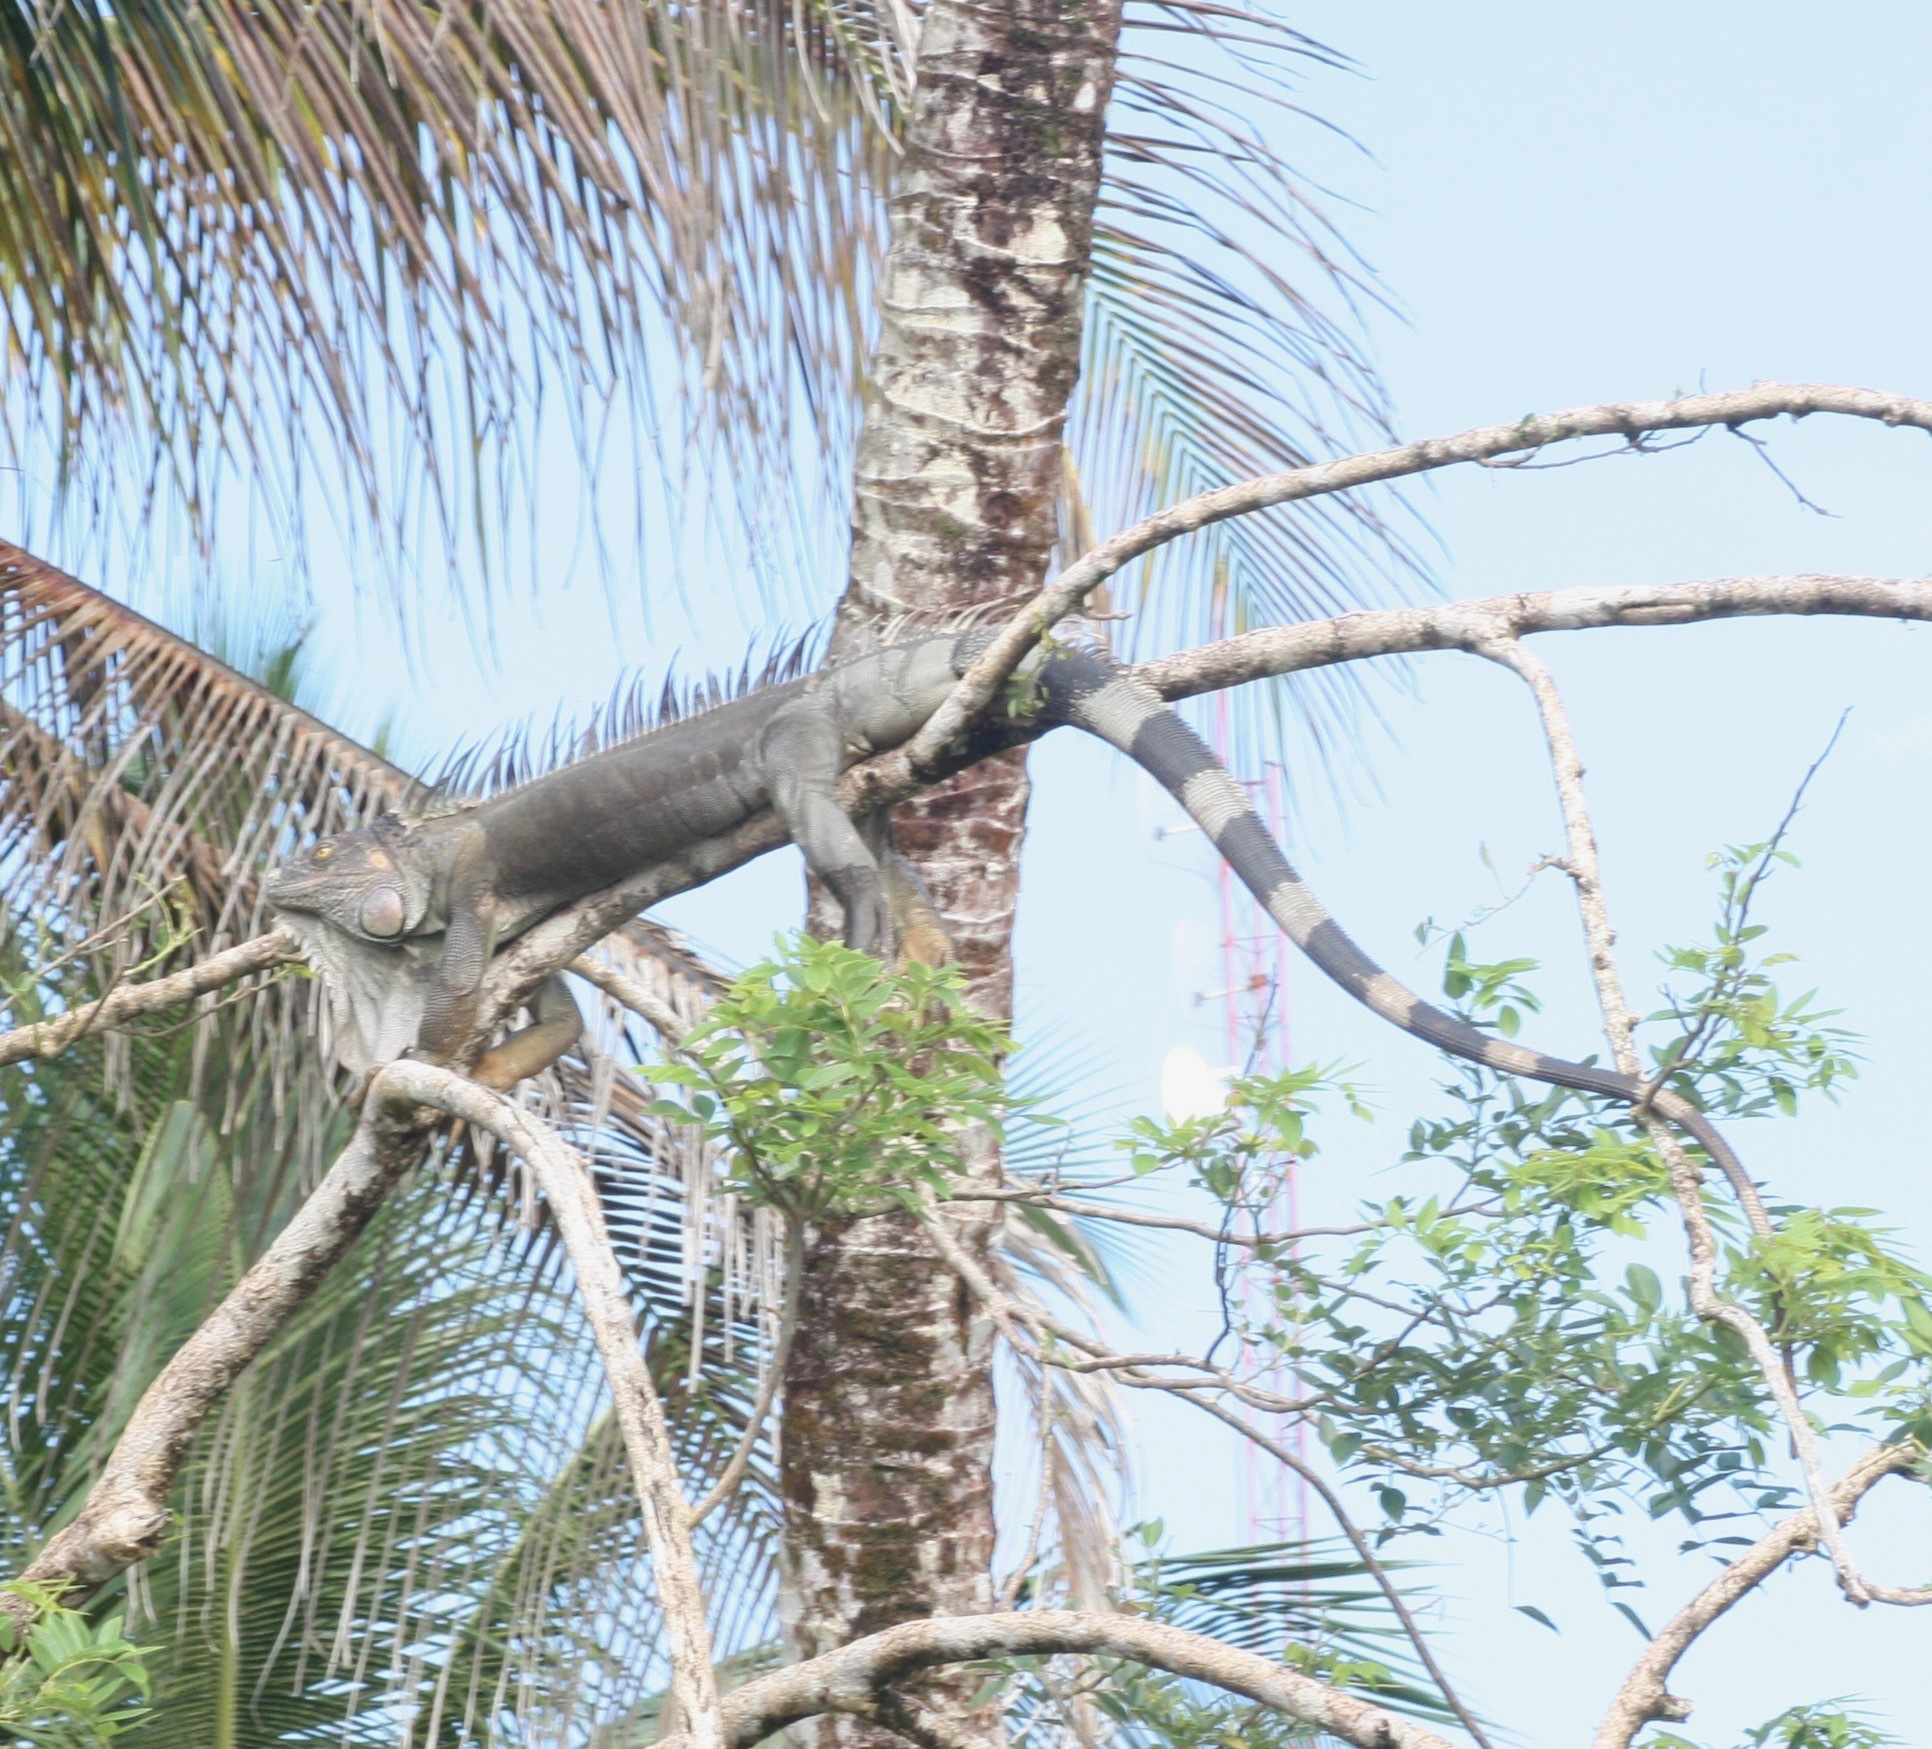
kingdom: Animalia
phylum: Chordata
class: Squamata
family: Iguanidae
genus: Iguana
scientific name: Iguana iguana
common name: Green iguana
